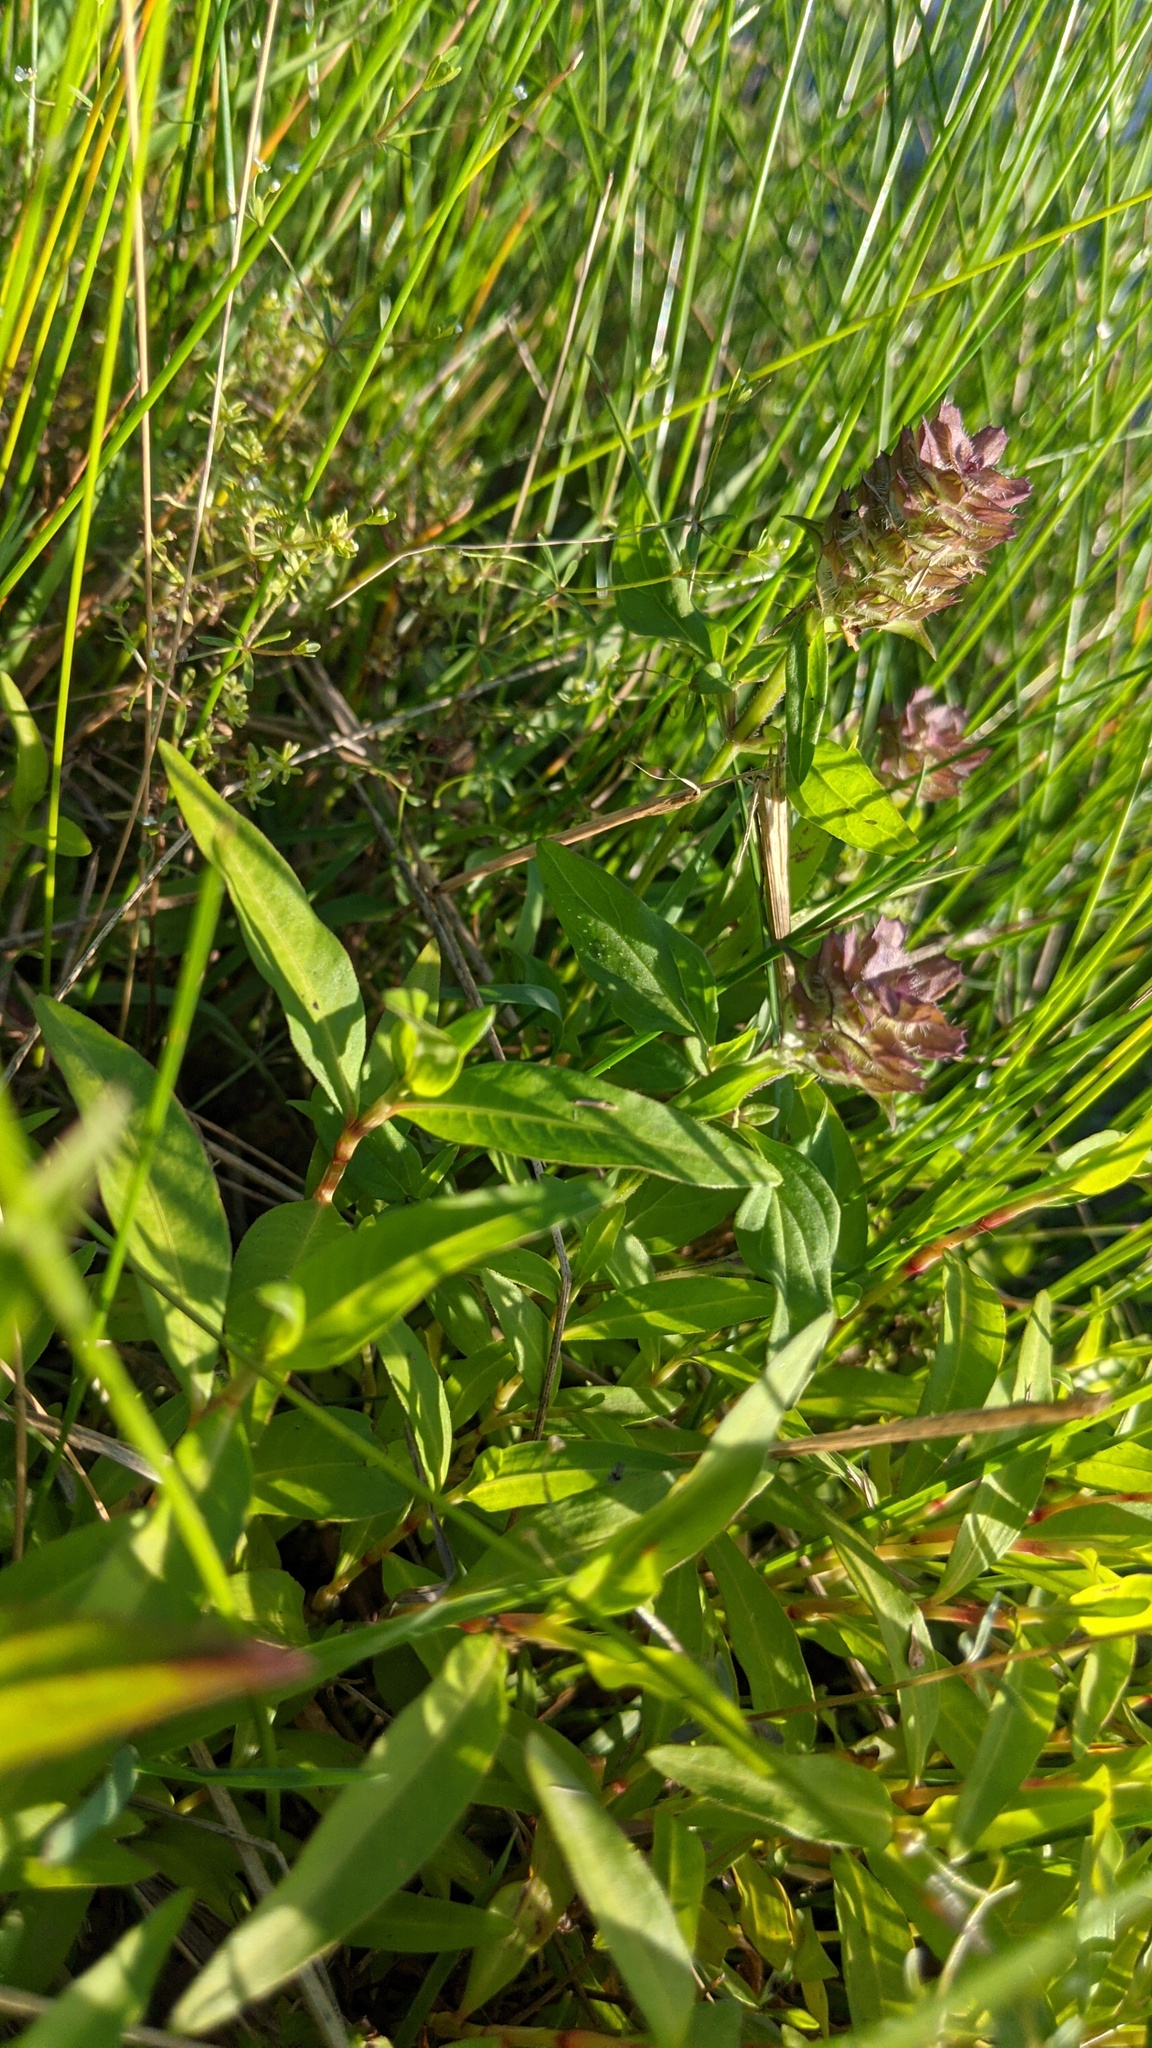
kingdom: Plantae
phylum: Tracheophyta
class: Magnoliopsida
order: Lamiales
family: Lamiaceae
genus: Prunella
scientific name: Prunella vulgaris
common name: Heal-all
